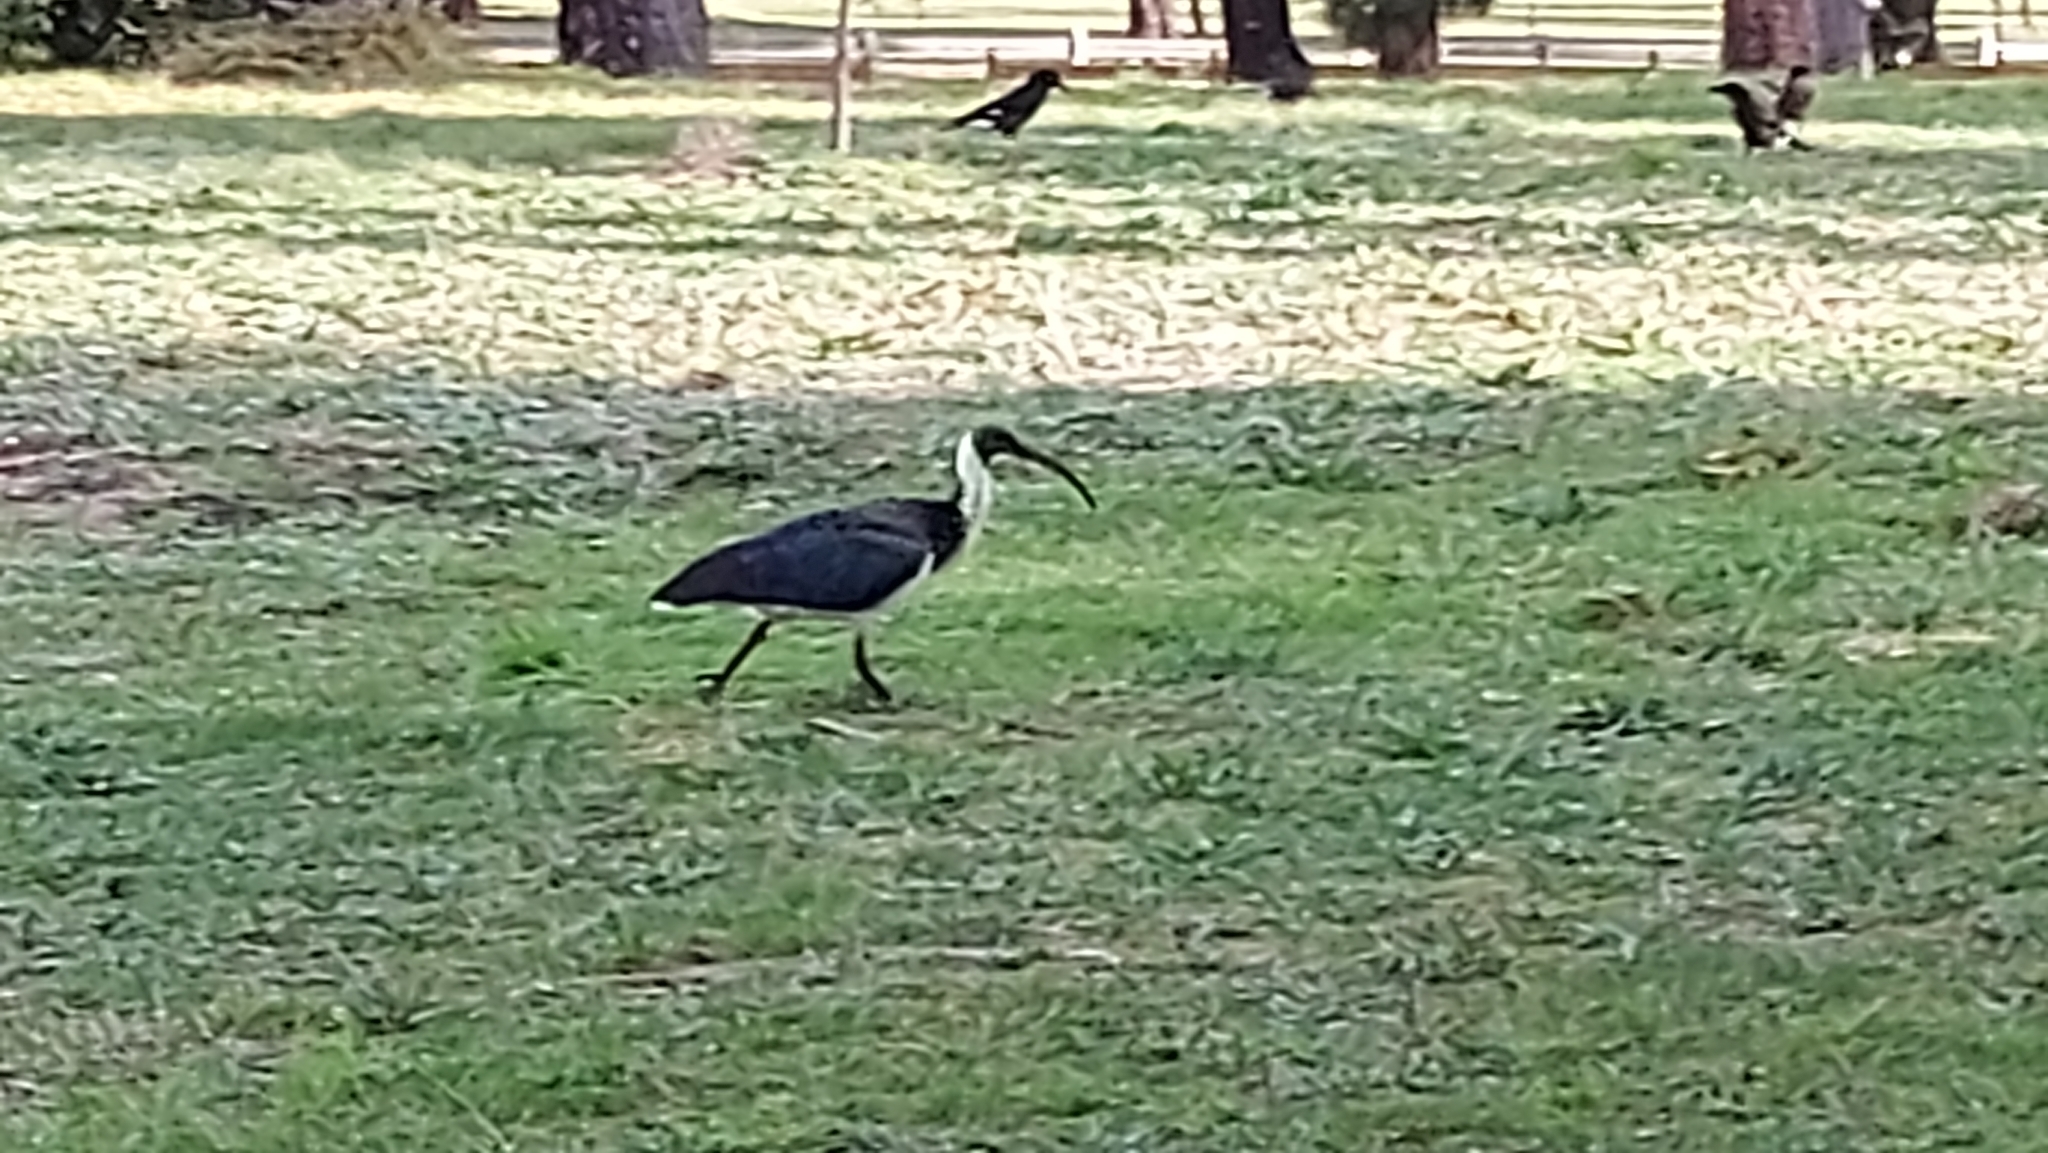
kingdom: Animalia
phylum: Chordata
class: Aves
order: Pelecaniformes
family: Threskiornithidae
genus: Threskiornis
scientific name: Threskiornis spinicollis
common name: Straw-necked ibis
